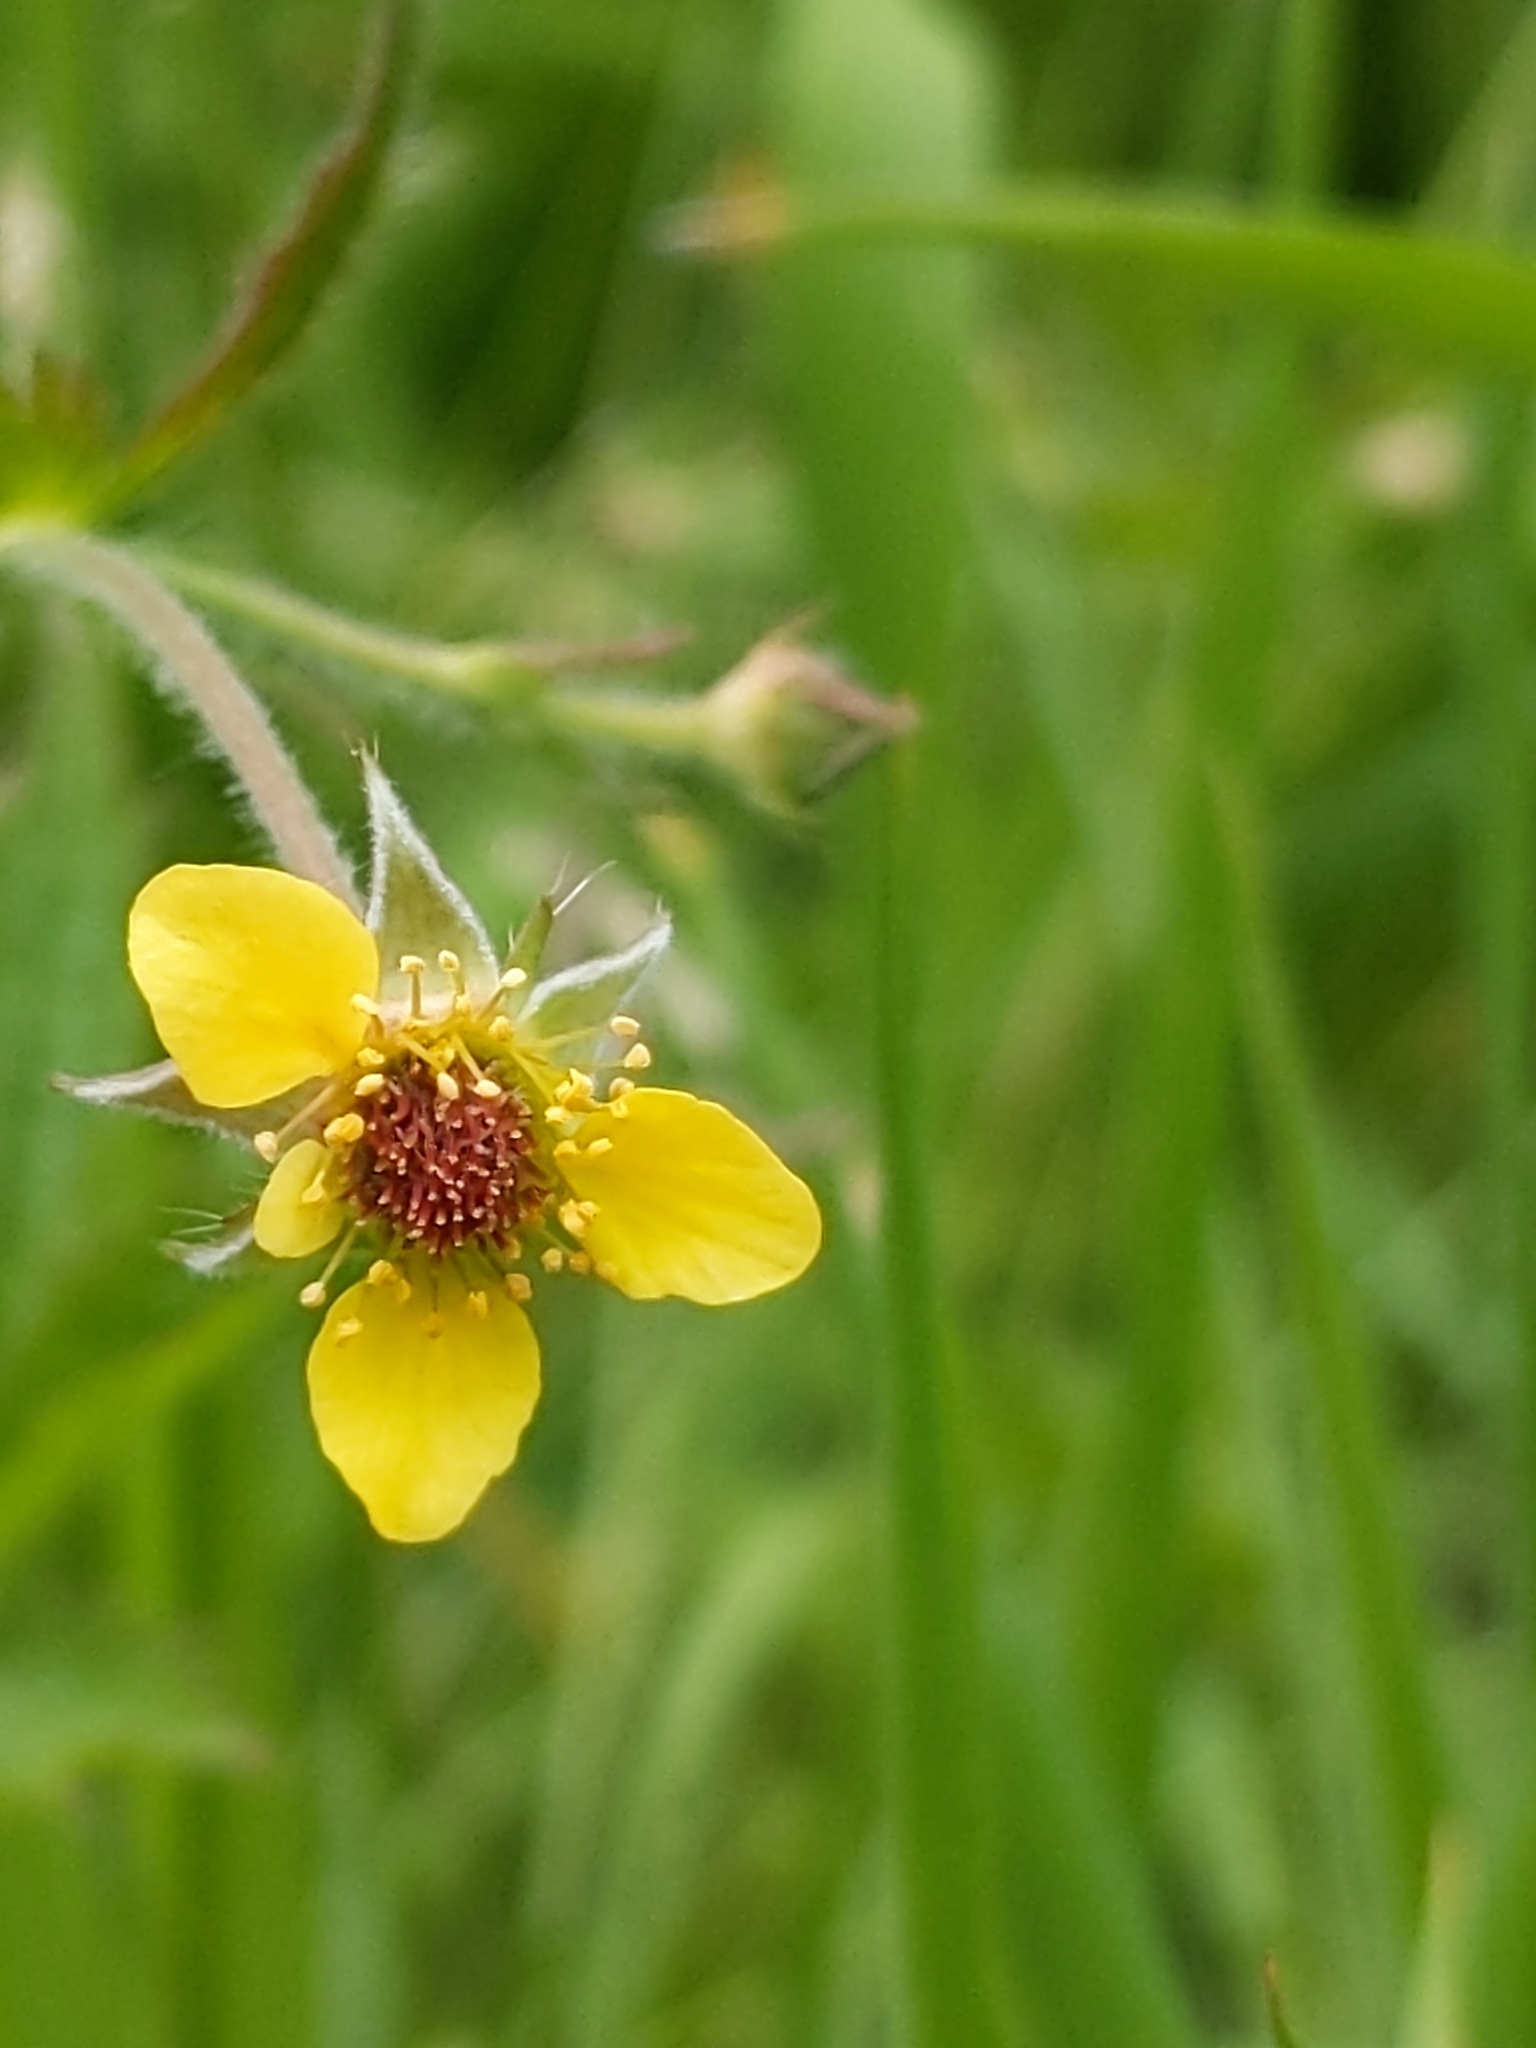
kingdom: Plantae
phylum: Tracheophyta
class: Magnoliopsida
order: Rosales
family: Rosaceae
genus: Geum
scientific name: Geum urbanum
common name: Wood avens
